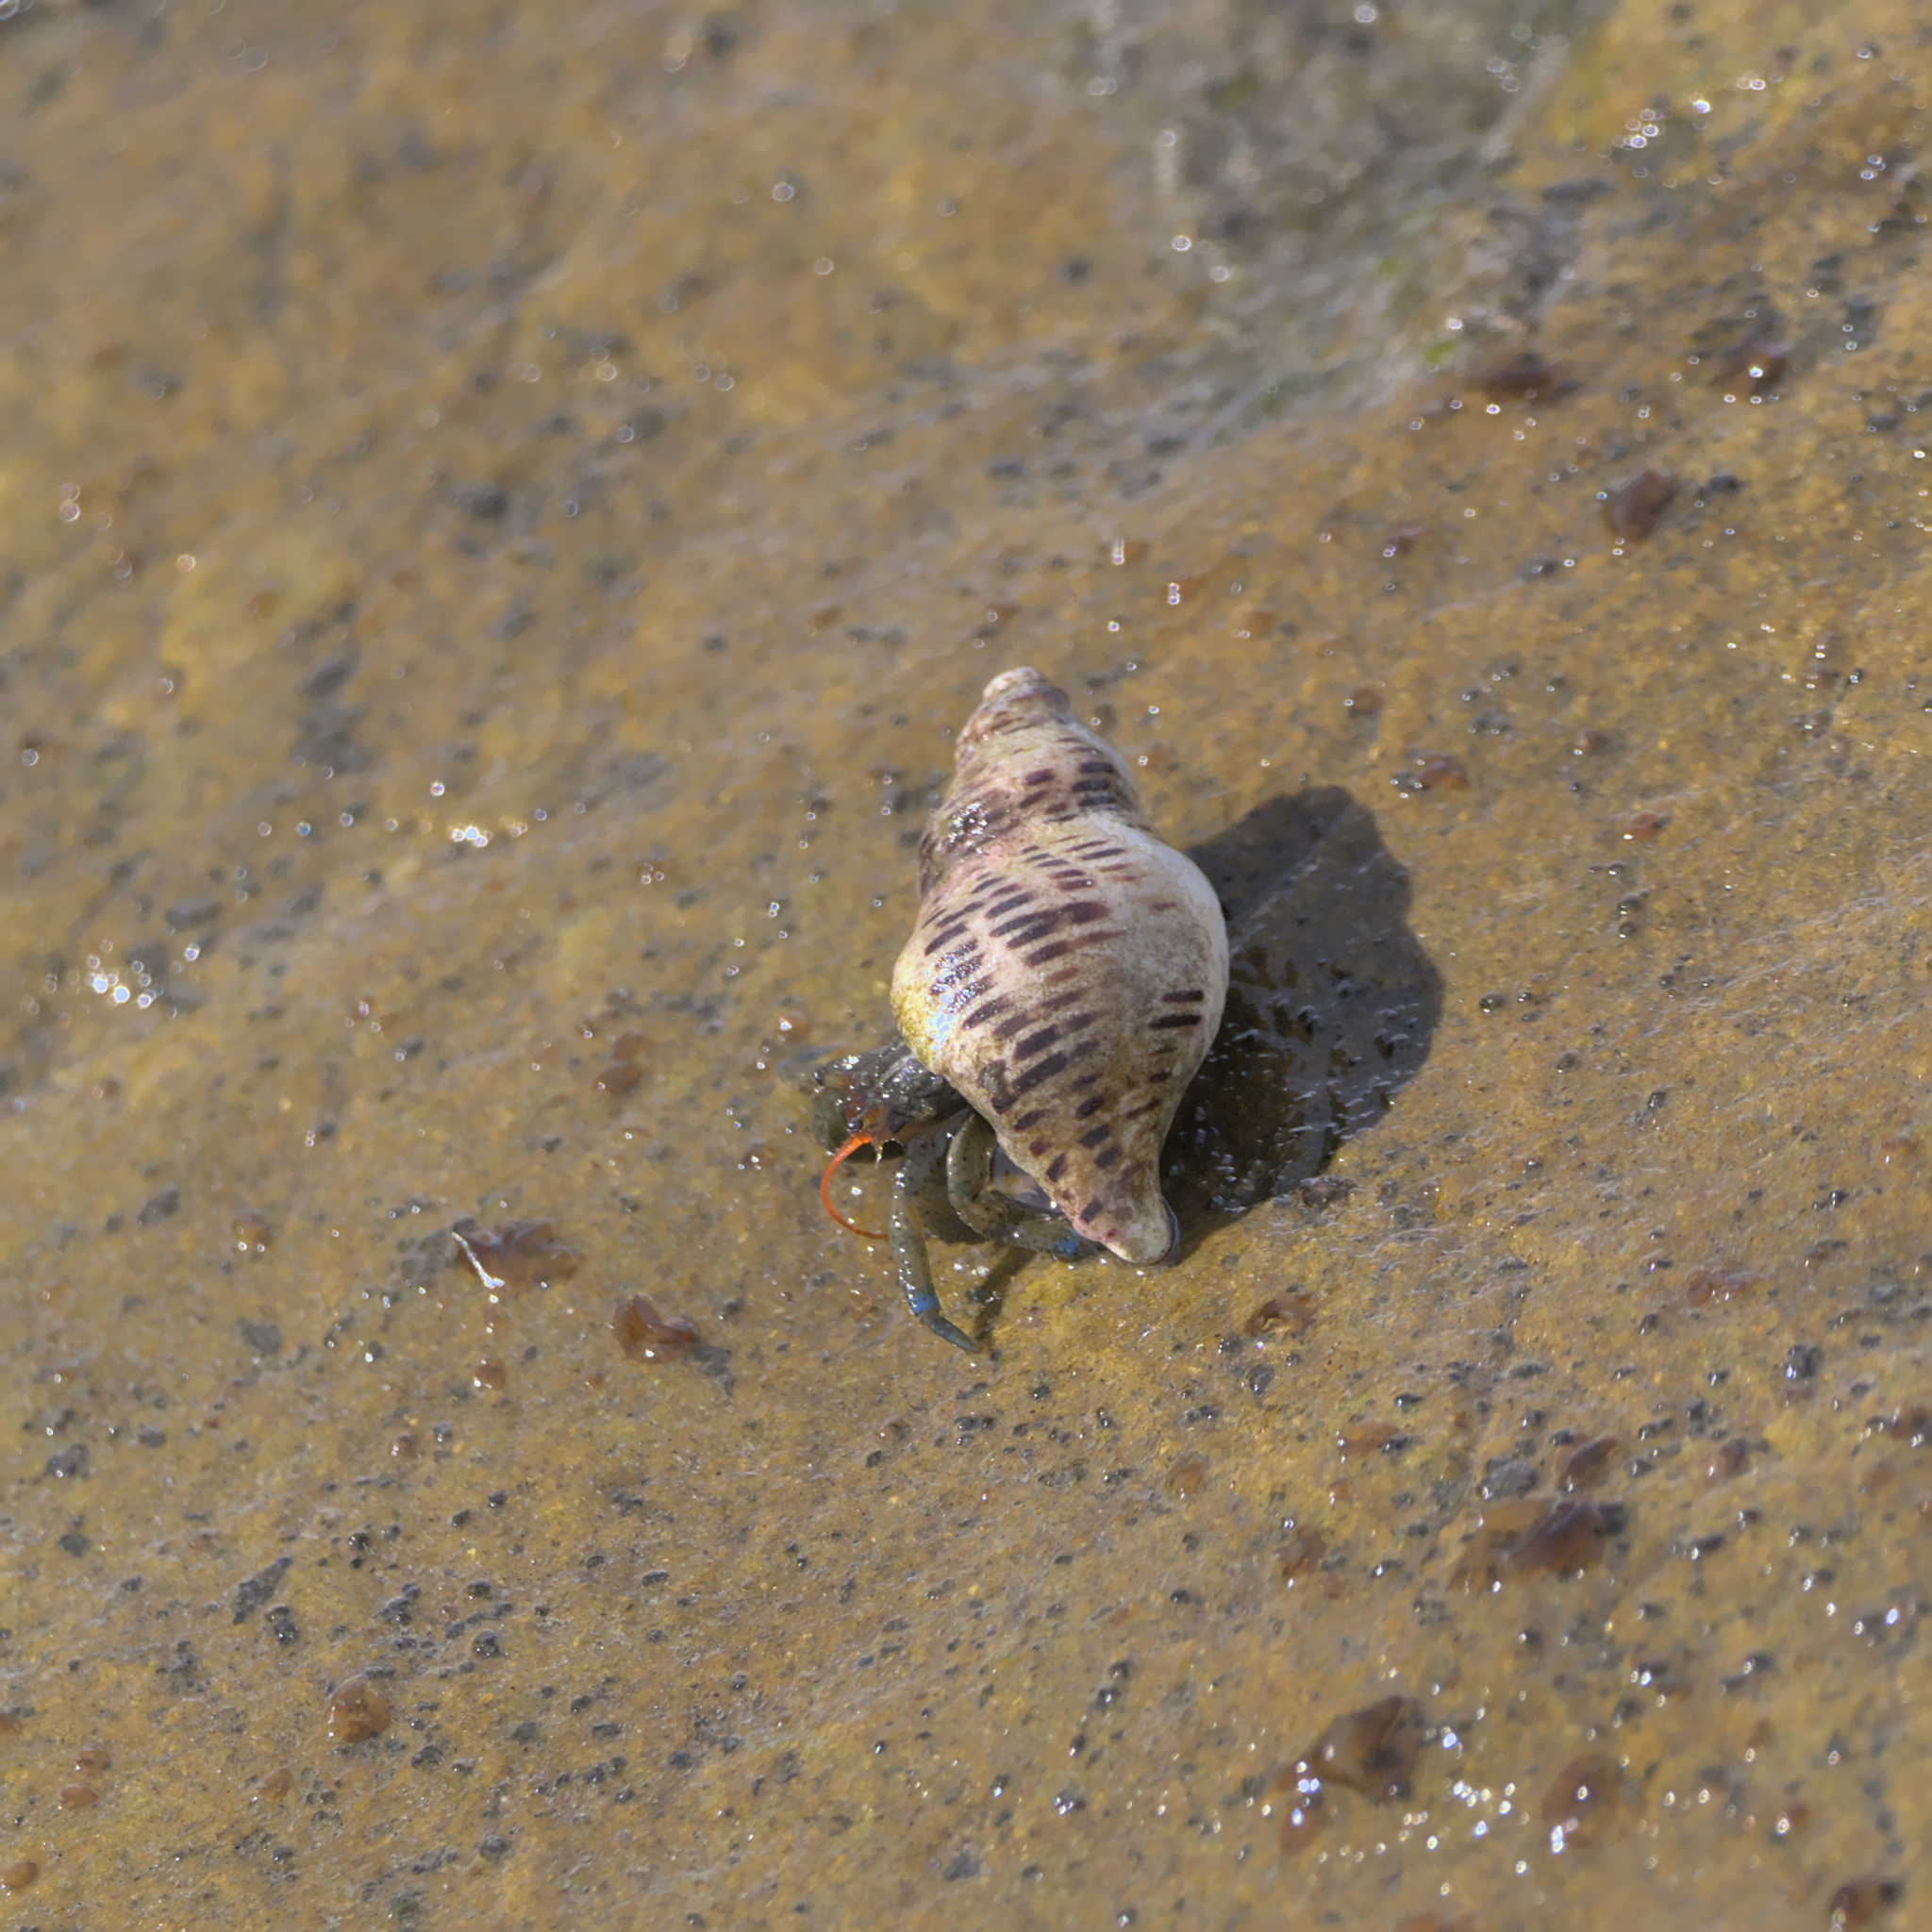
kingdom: Animalia
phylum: Arthropoda
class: Malacostraca
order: Decapoda
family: Paguridae
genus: Pagurus
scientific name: Pagurus samuelis
